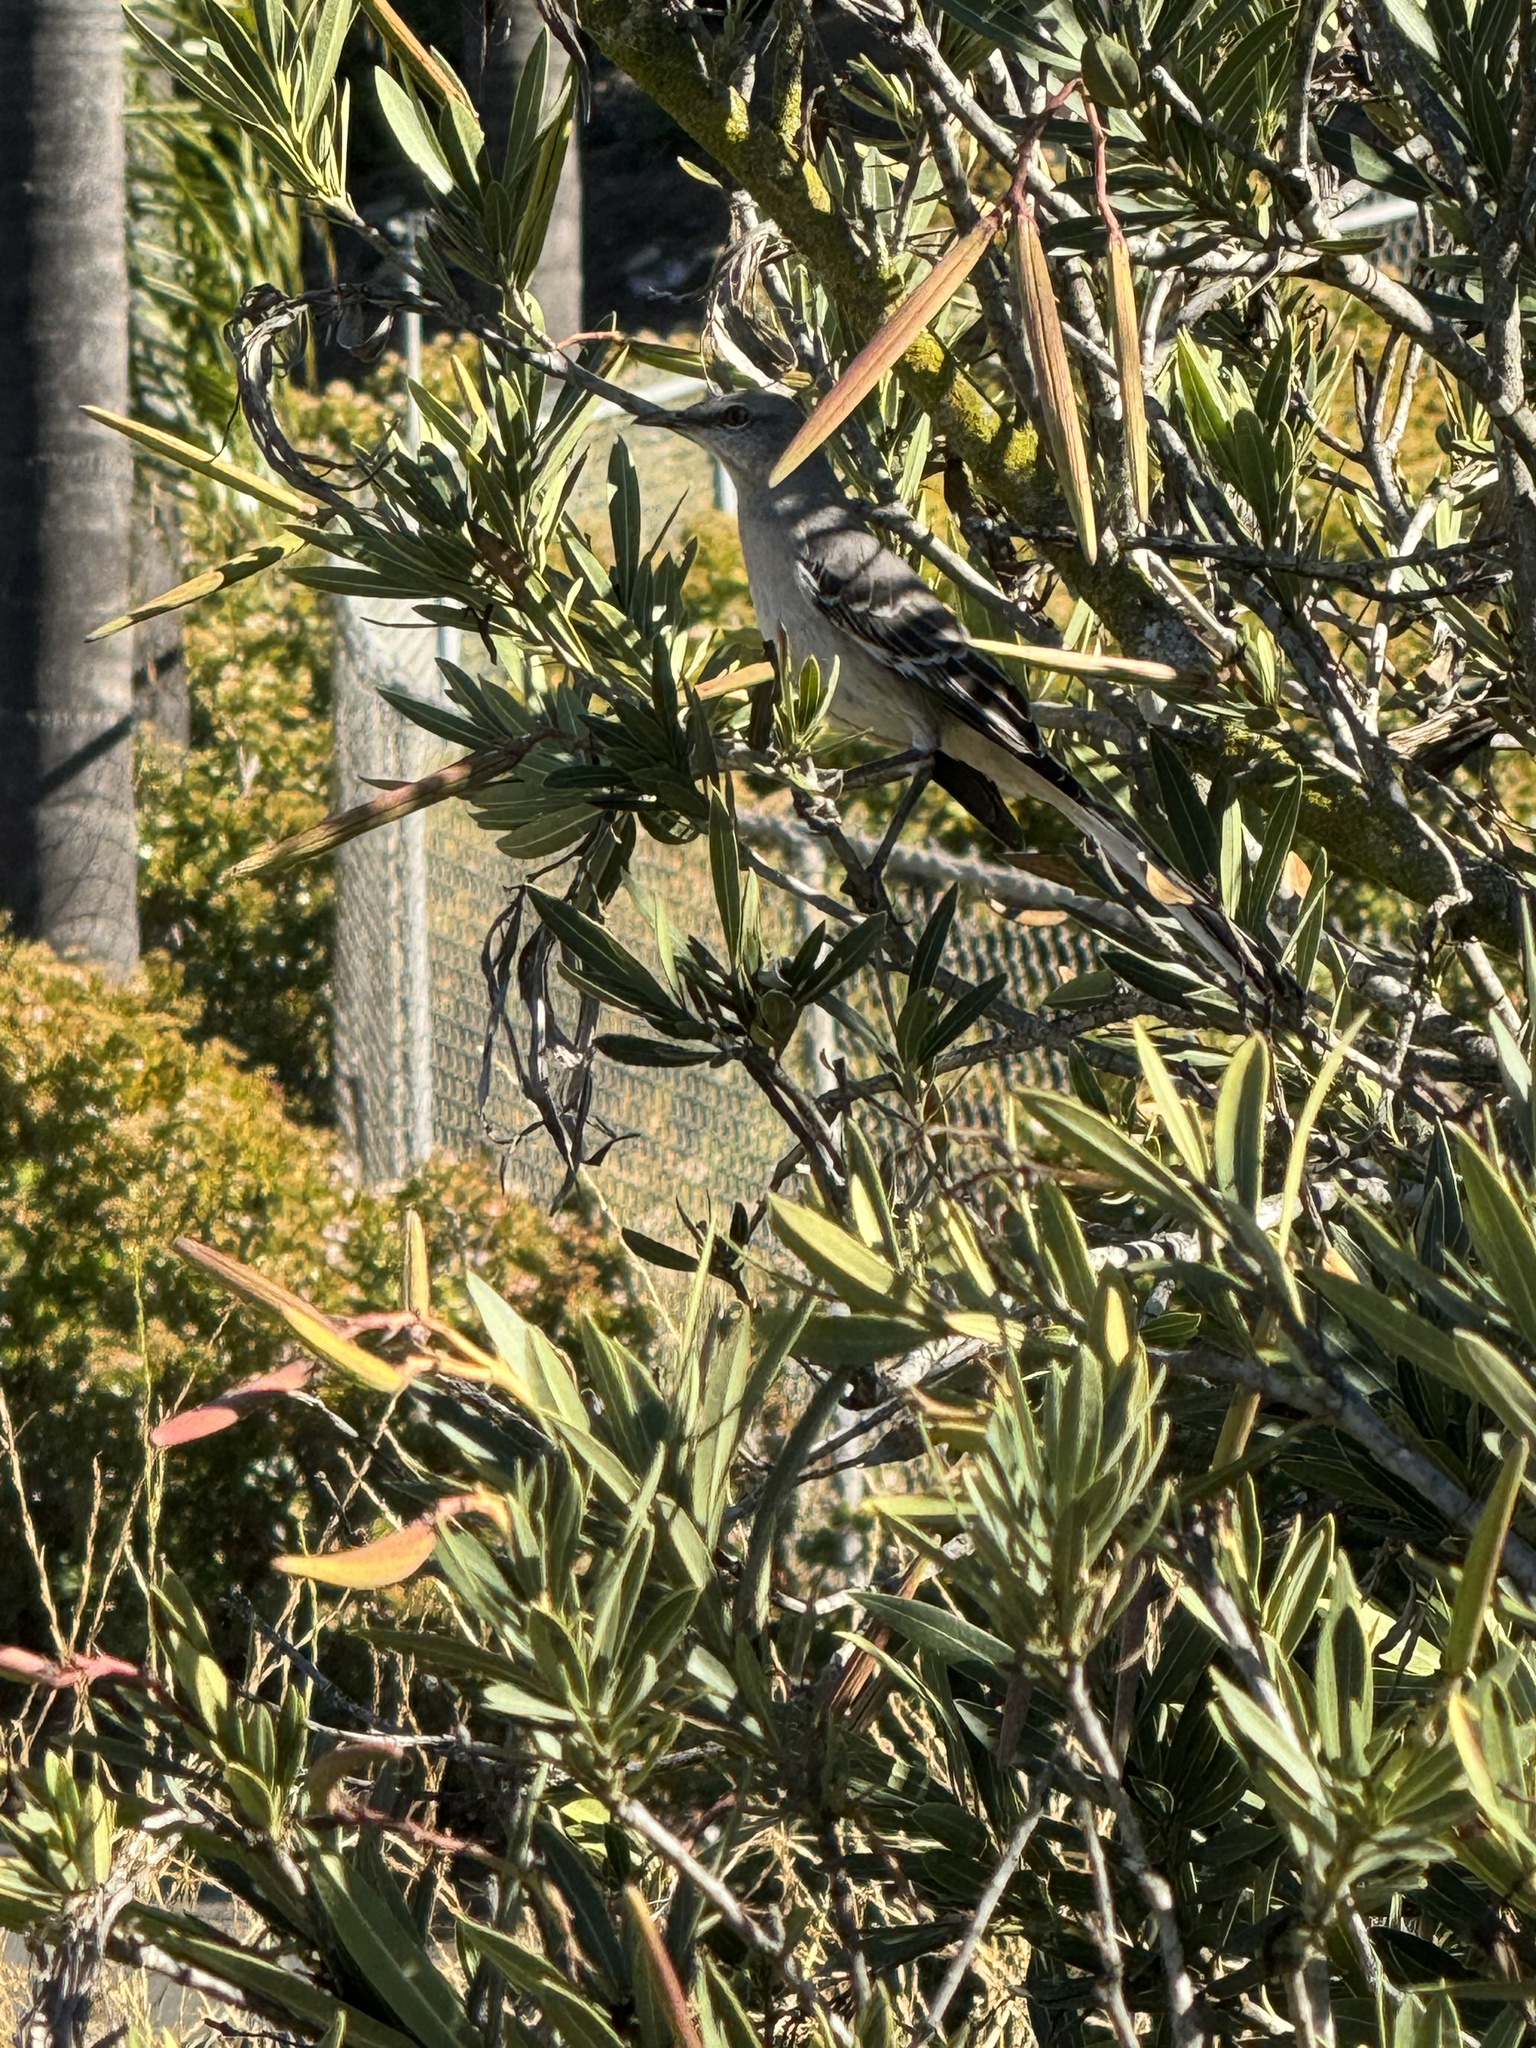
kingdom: Animalia
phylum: Chordata
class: Aves
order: Passeriformes
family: Mimidae
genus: Mimus
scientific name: Mimus polyglottos
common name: Northern mockingbird
